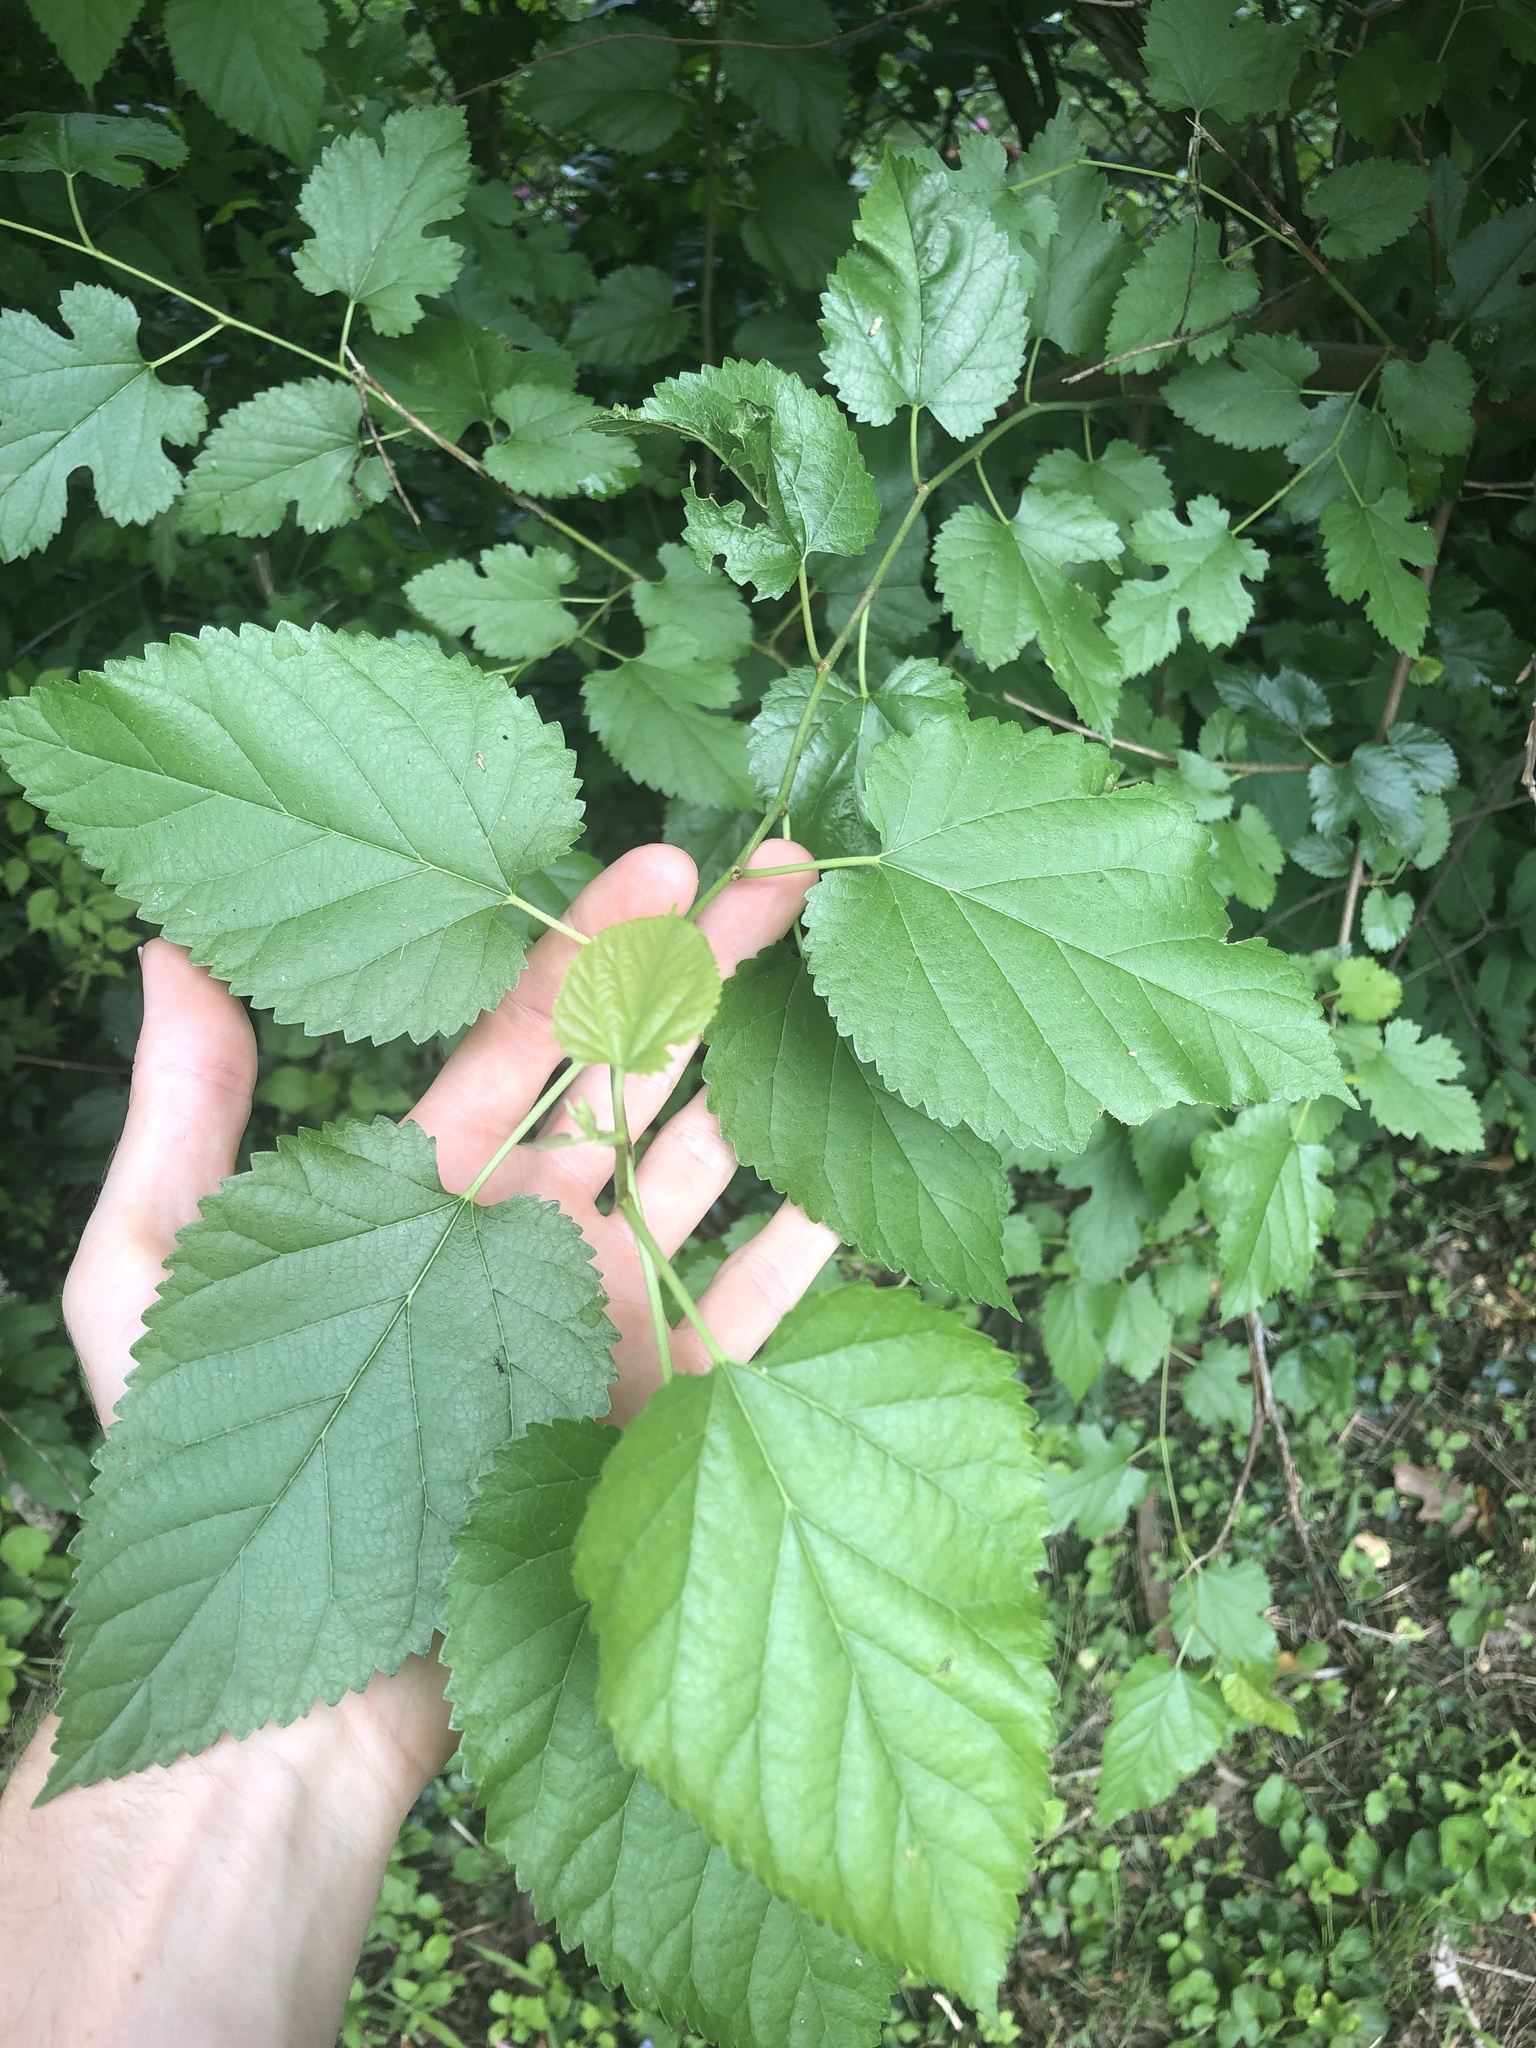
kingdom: Plantae
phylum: Tracheophyta
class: Magnoliopsida
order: Rosales
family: Moraceae
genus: Morus
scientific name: Morus alba
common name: White mulberry
